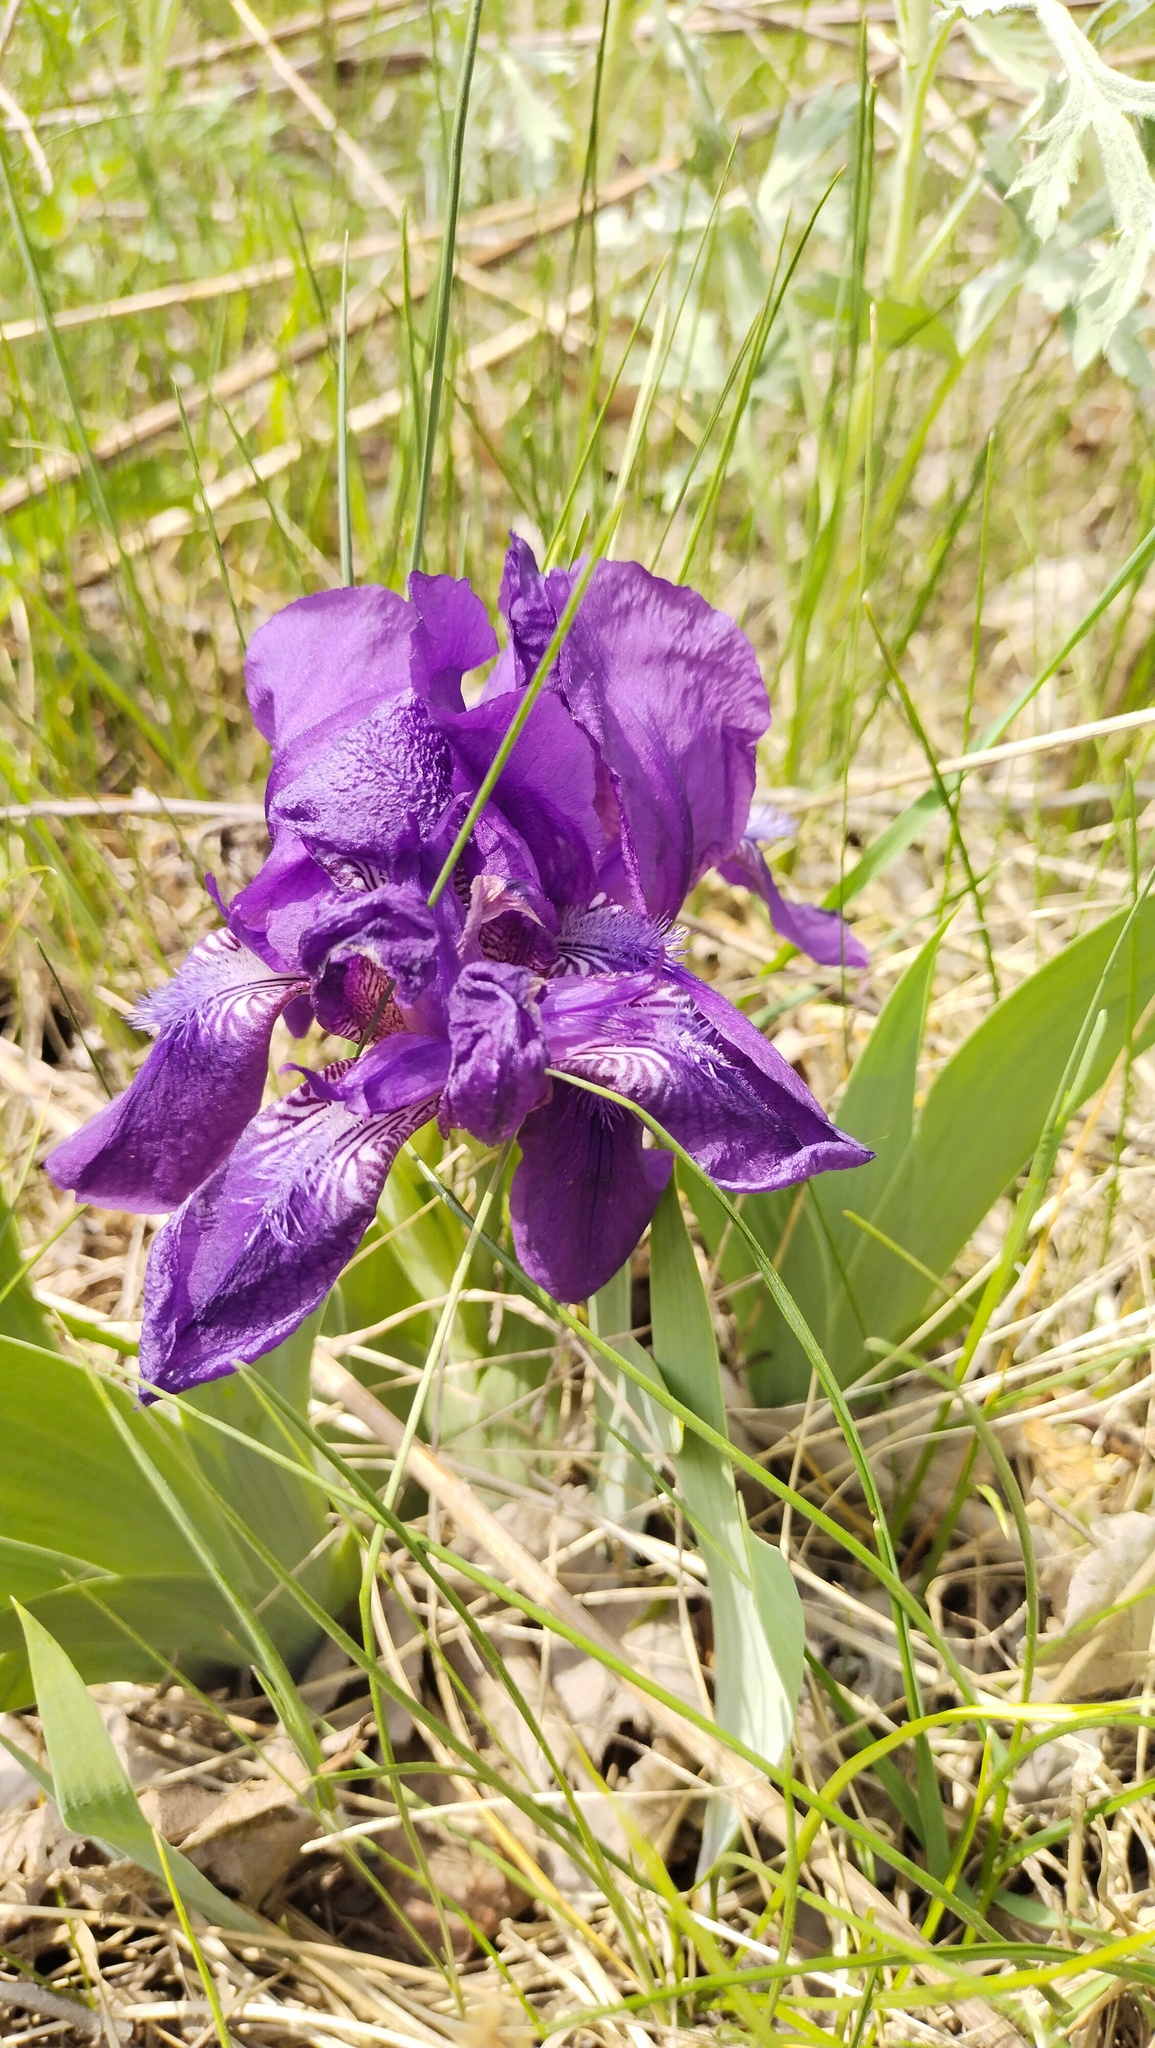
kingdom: Plantae
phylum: Tracheophyta
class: Liliopsida
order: Asparagales
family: Iridaceae
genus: Iris
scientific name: Iris aphylla
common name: Stool iris
